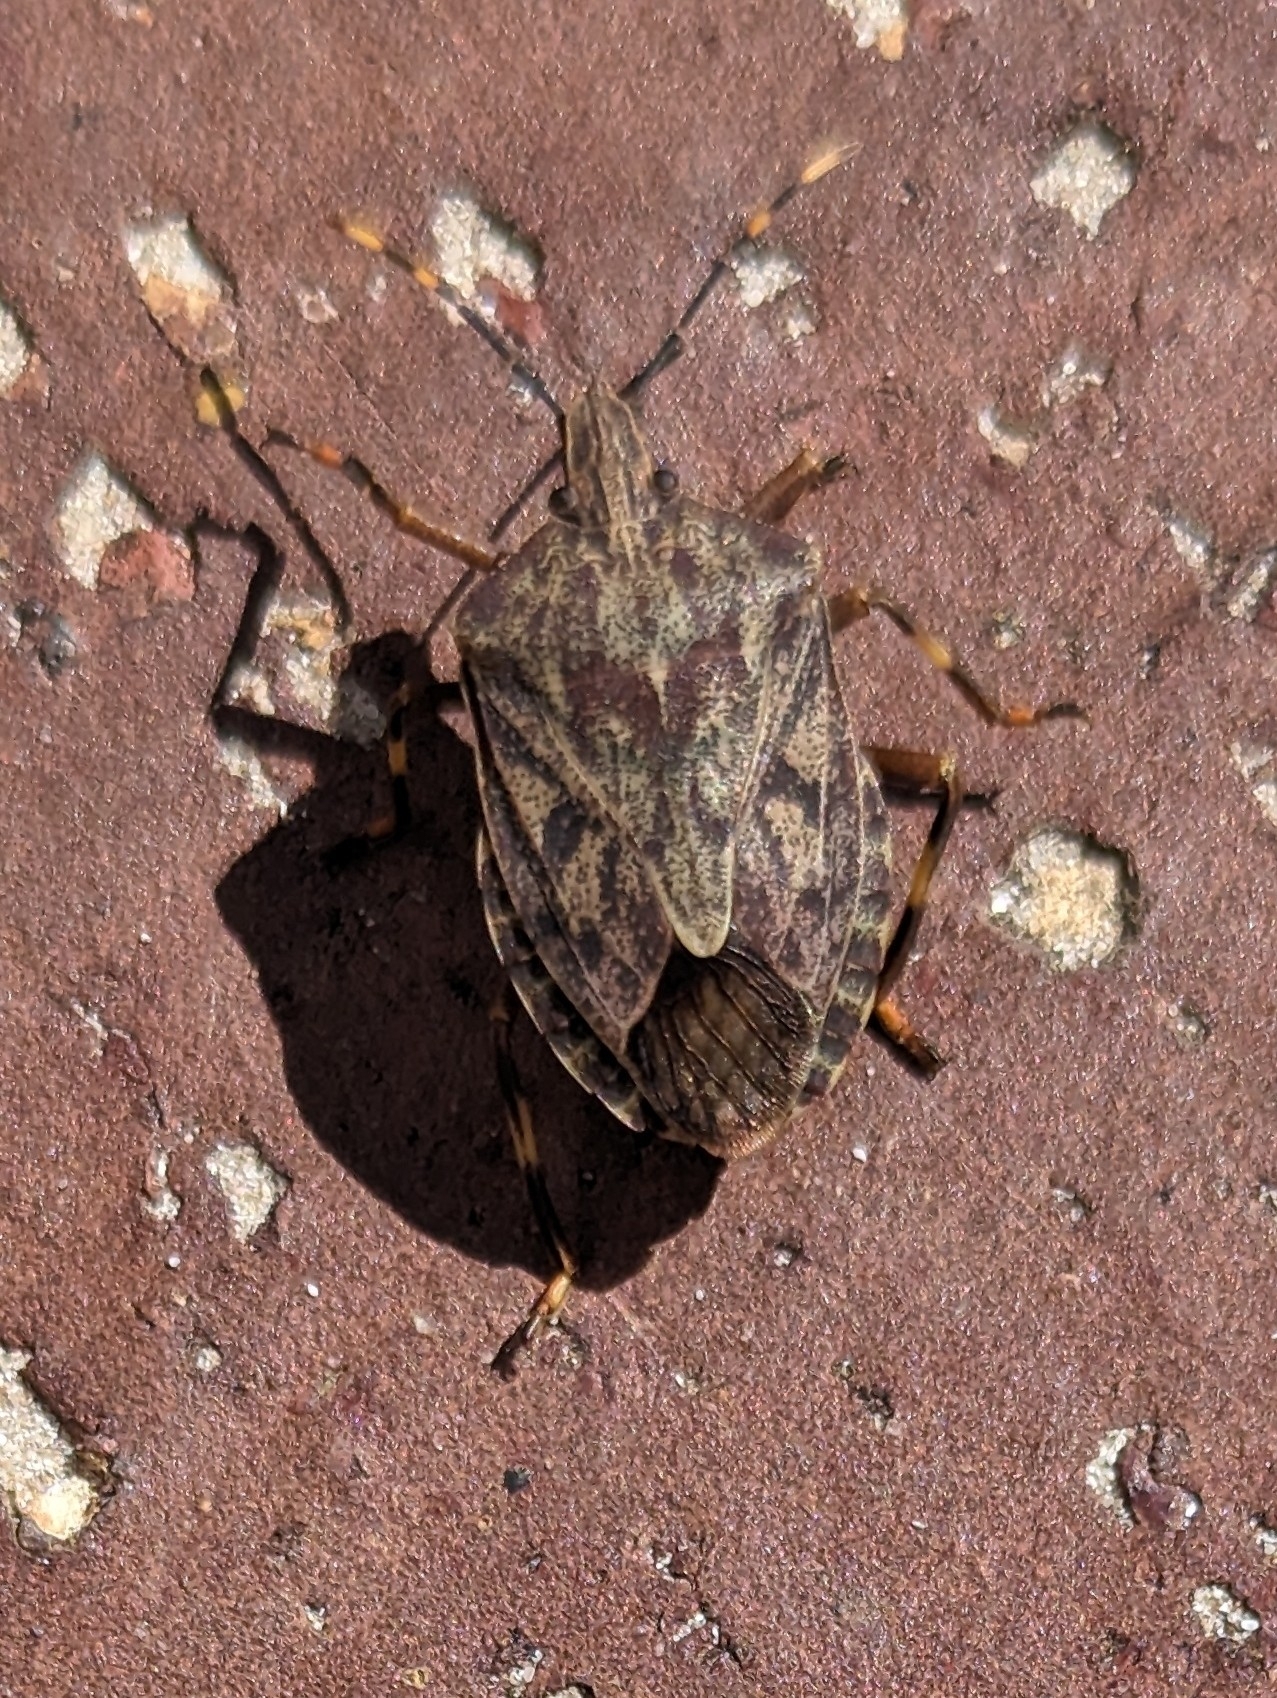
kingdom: Animalia
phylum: Arthropoda
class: Insecta
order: Hemiptera
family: Pentatomidae
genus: Coenomorpha
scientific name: Coenomorpha nervosa
